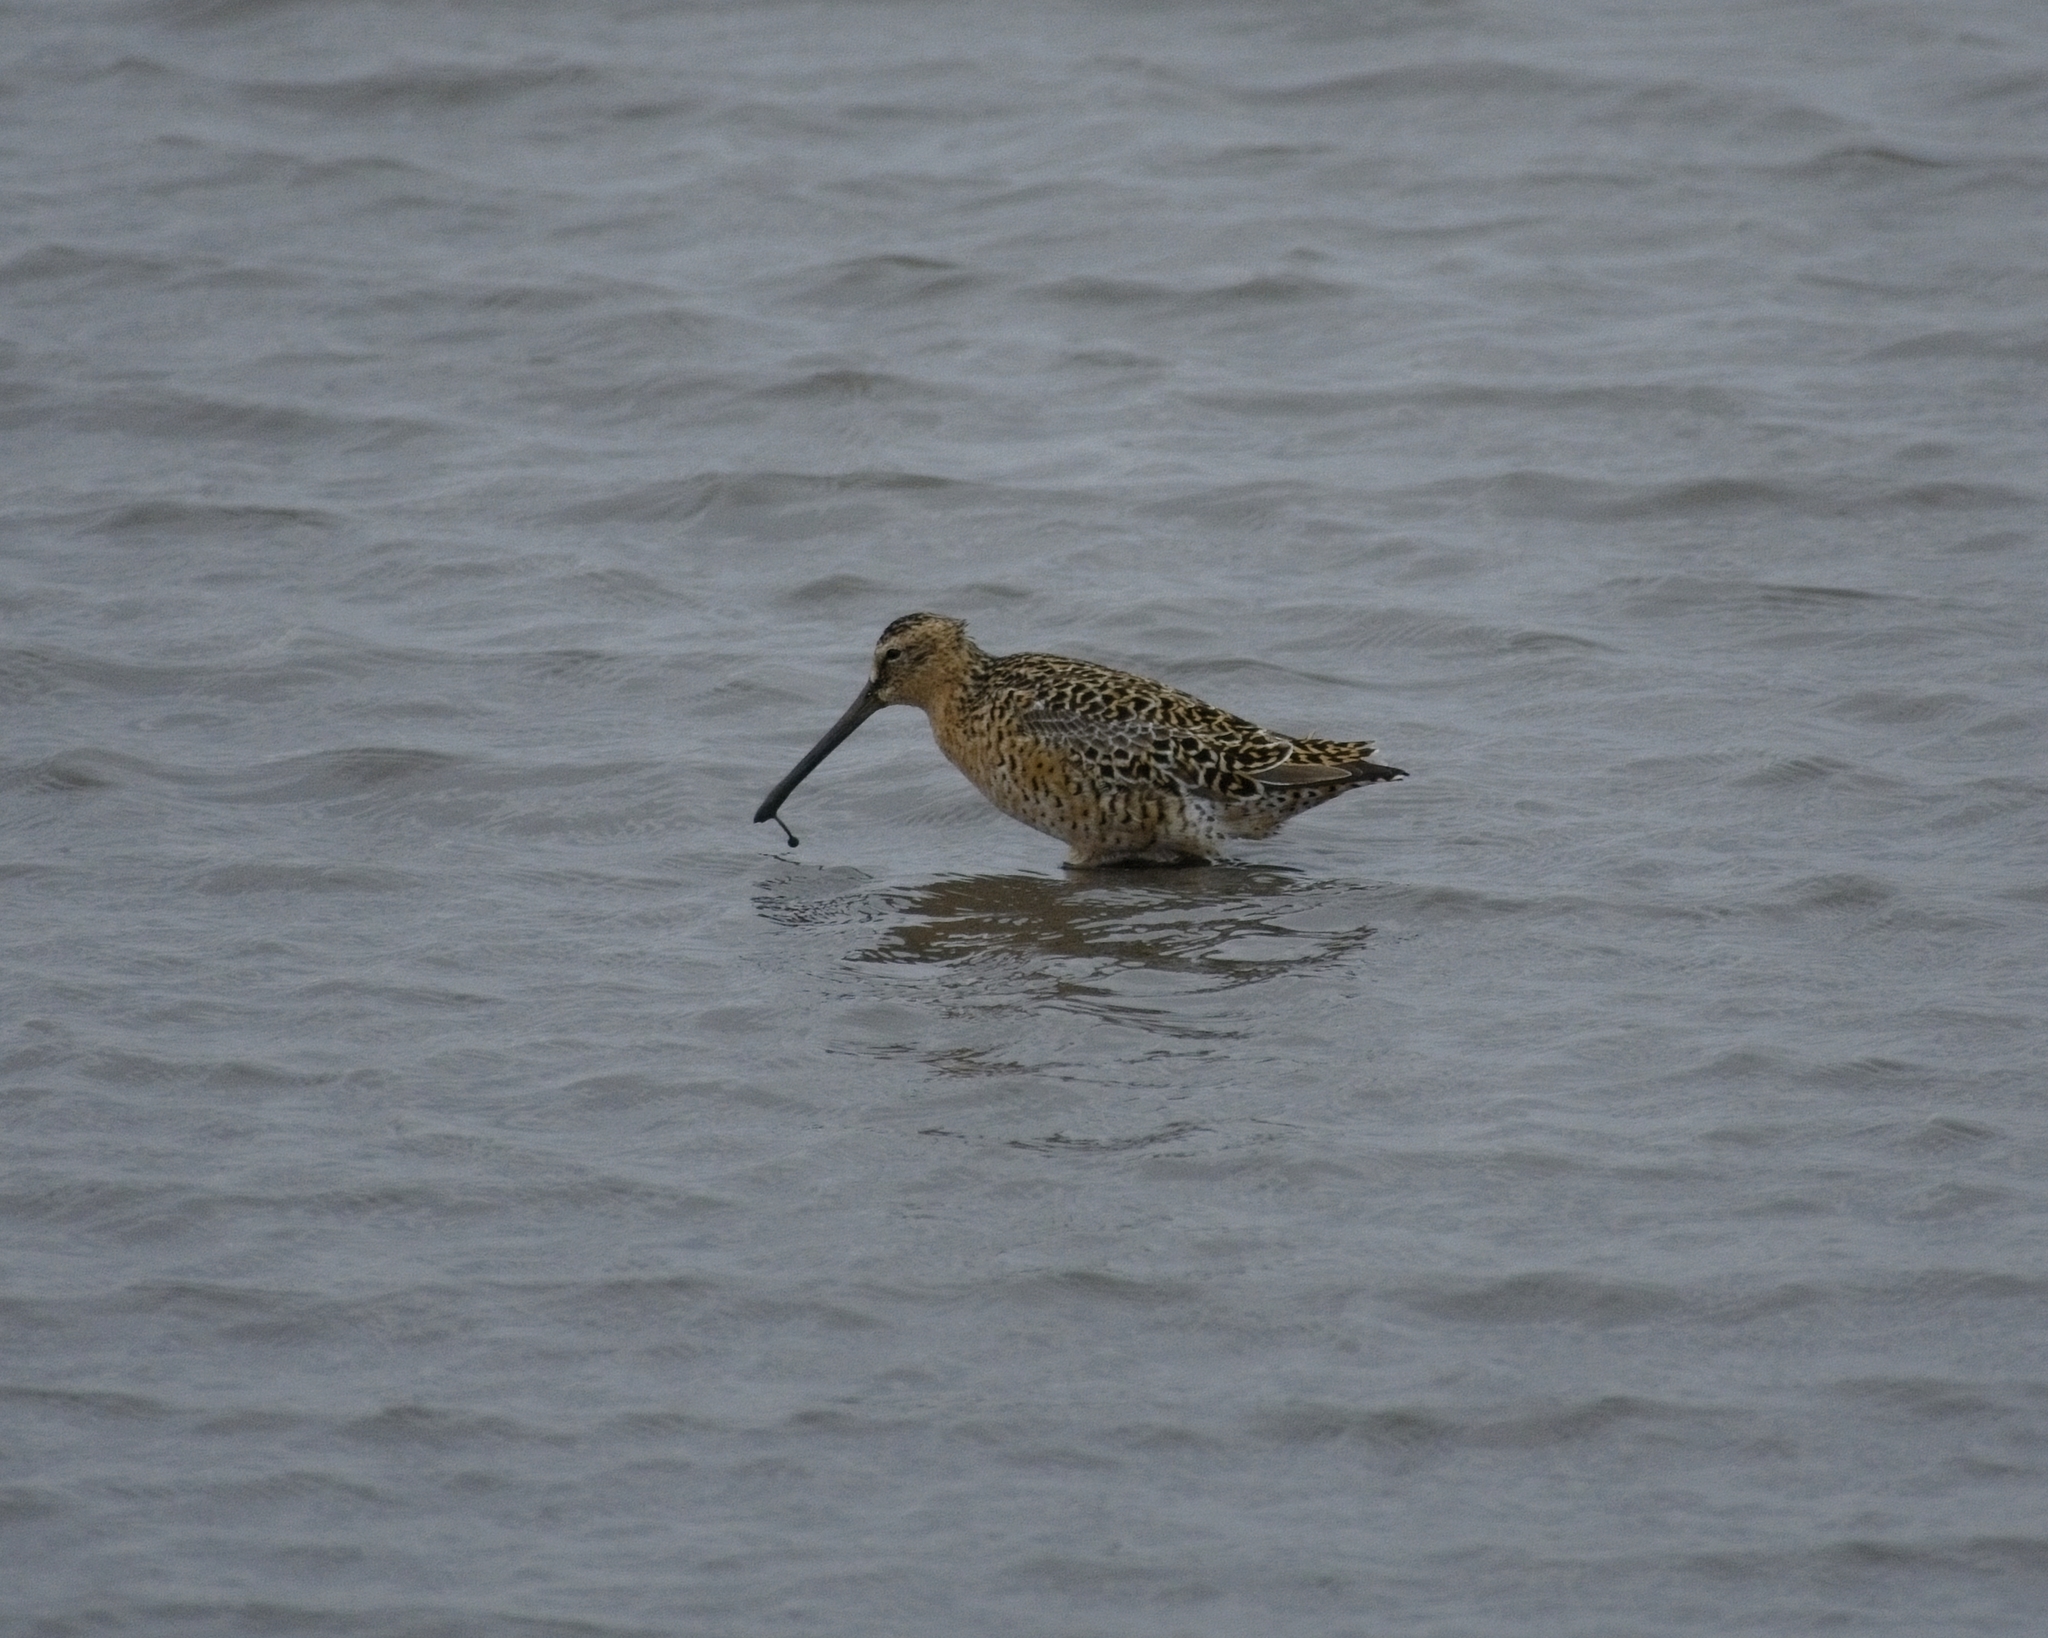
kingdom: Animalia
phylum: Chordata
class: Aves
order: Charadriiformes
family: Scolopacidae
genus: Limnodromus
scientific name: Limnodromus griseus
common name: Short-billed dowitcher
